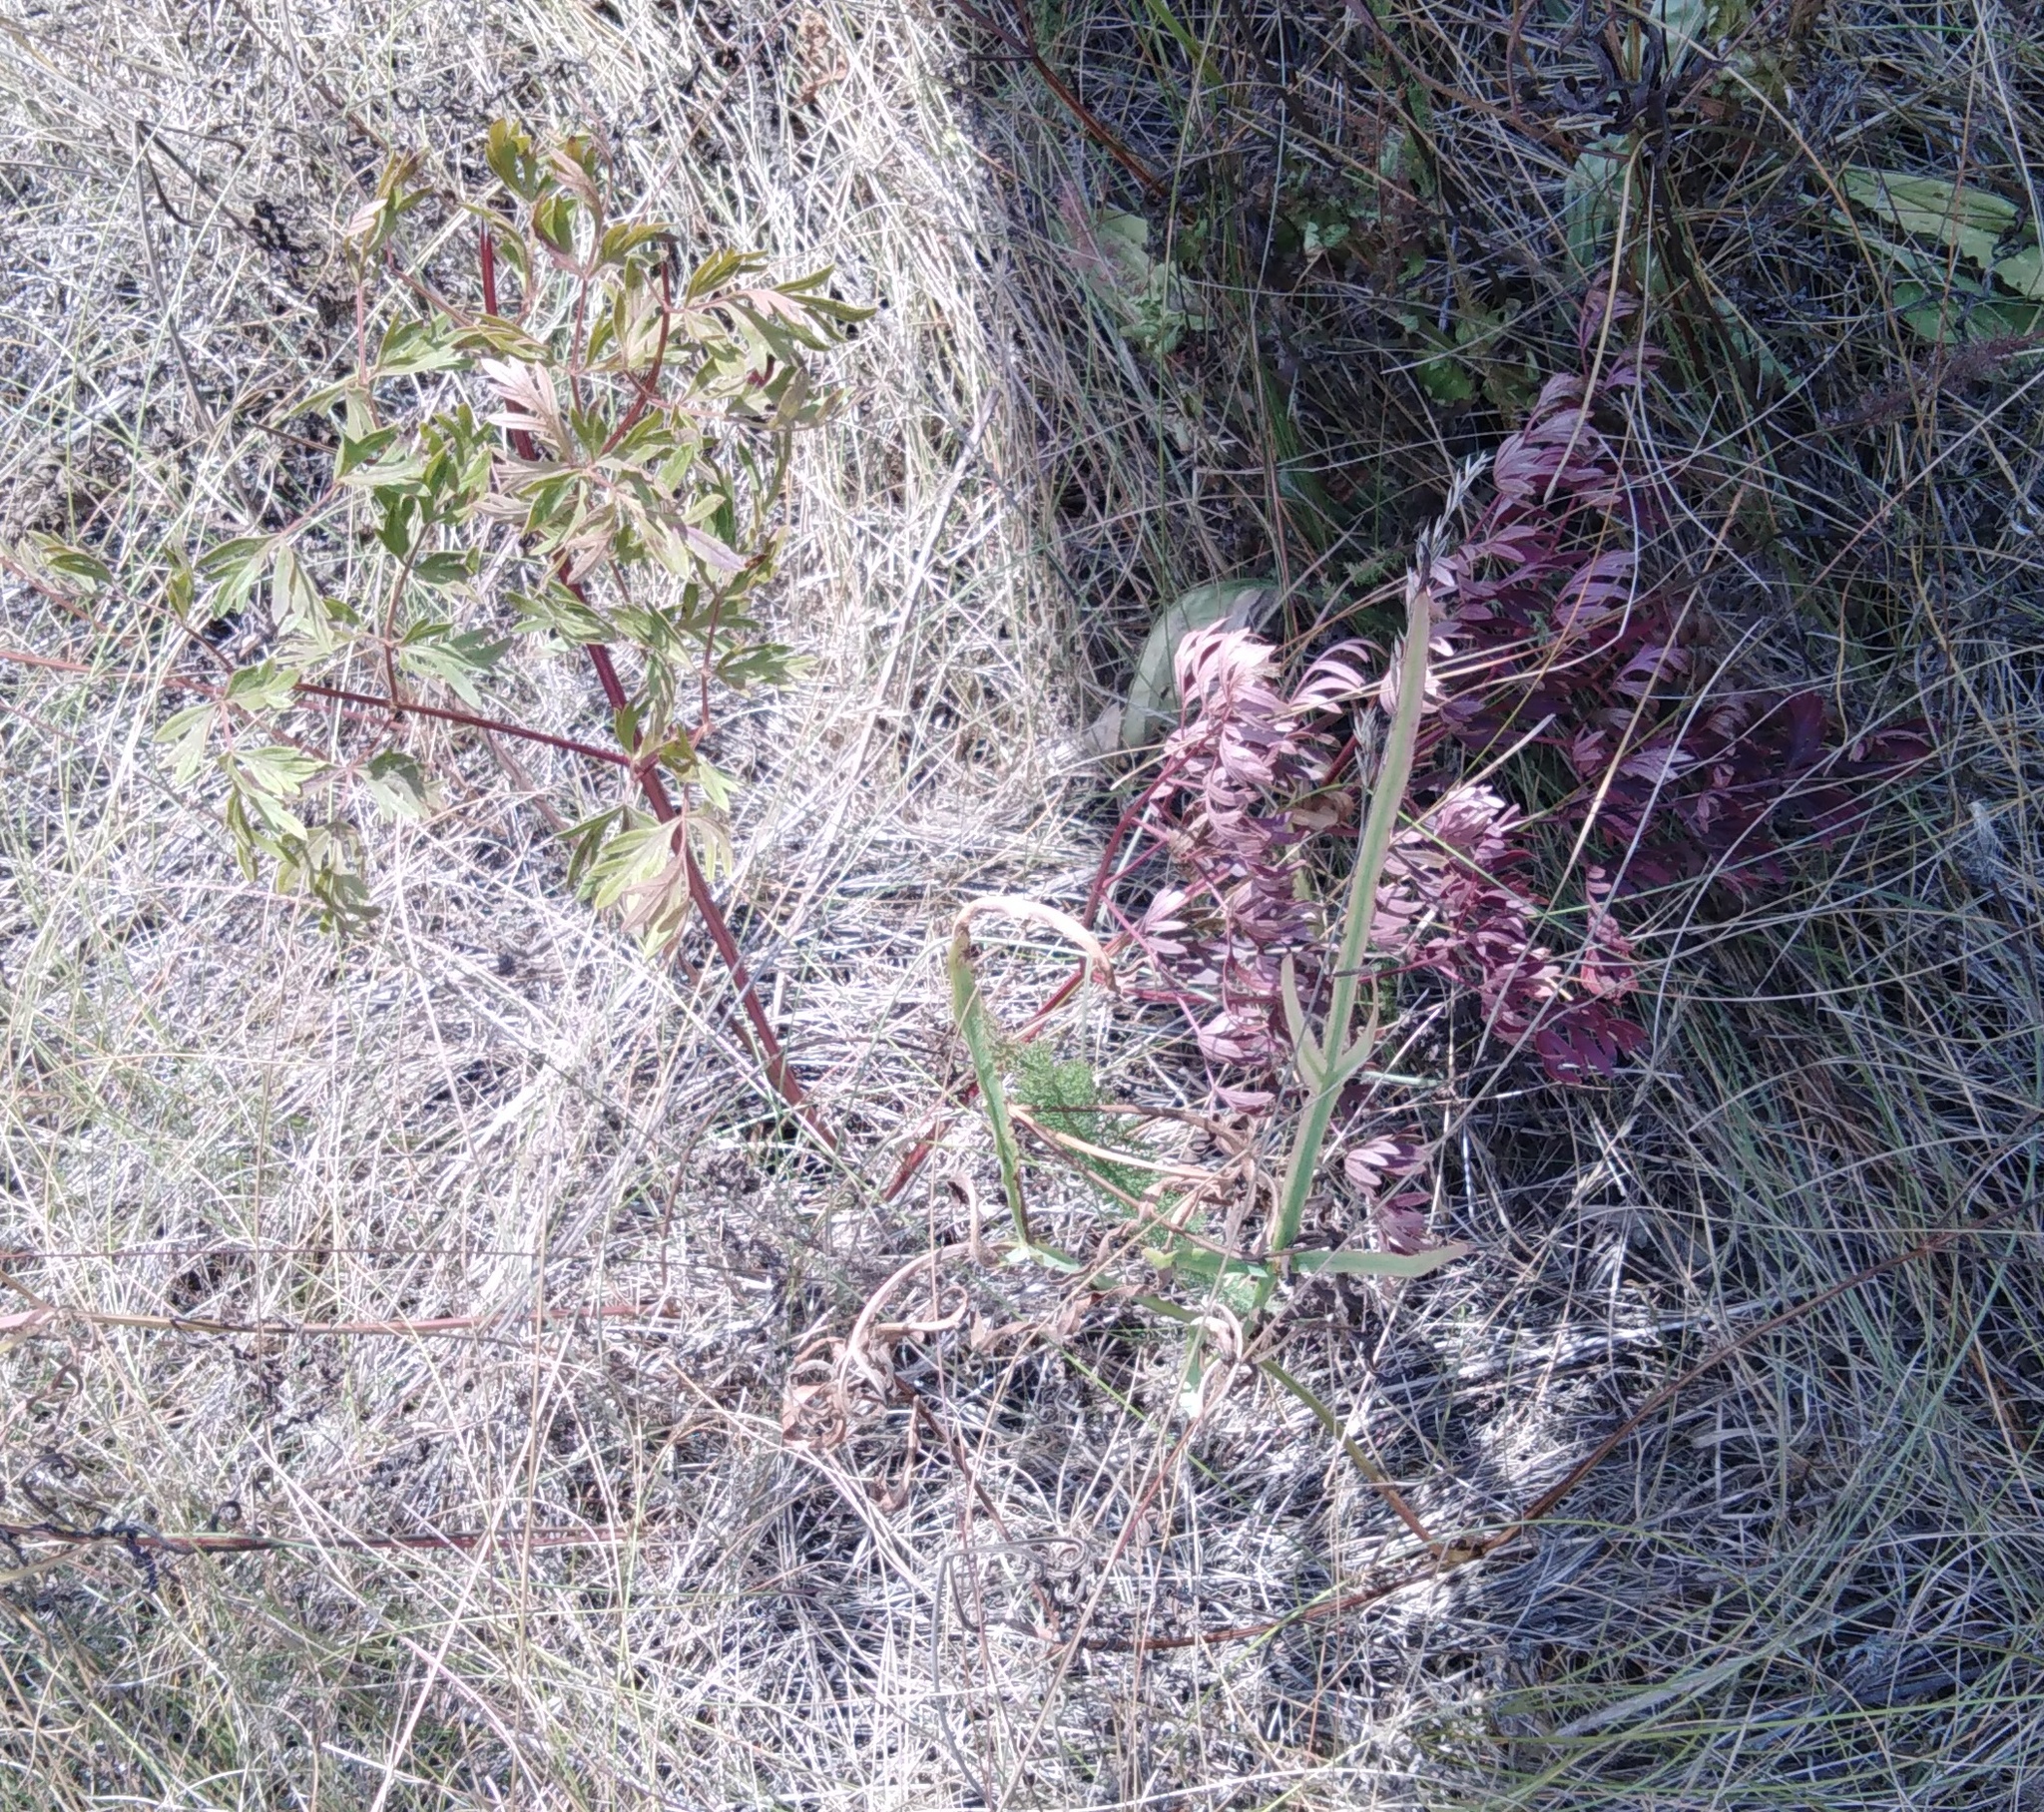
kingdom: Plantae
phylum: Tracheophyta
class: Magnoliopsida
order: Apiales
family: Apiaceae
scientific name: Apiaceae
